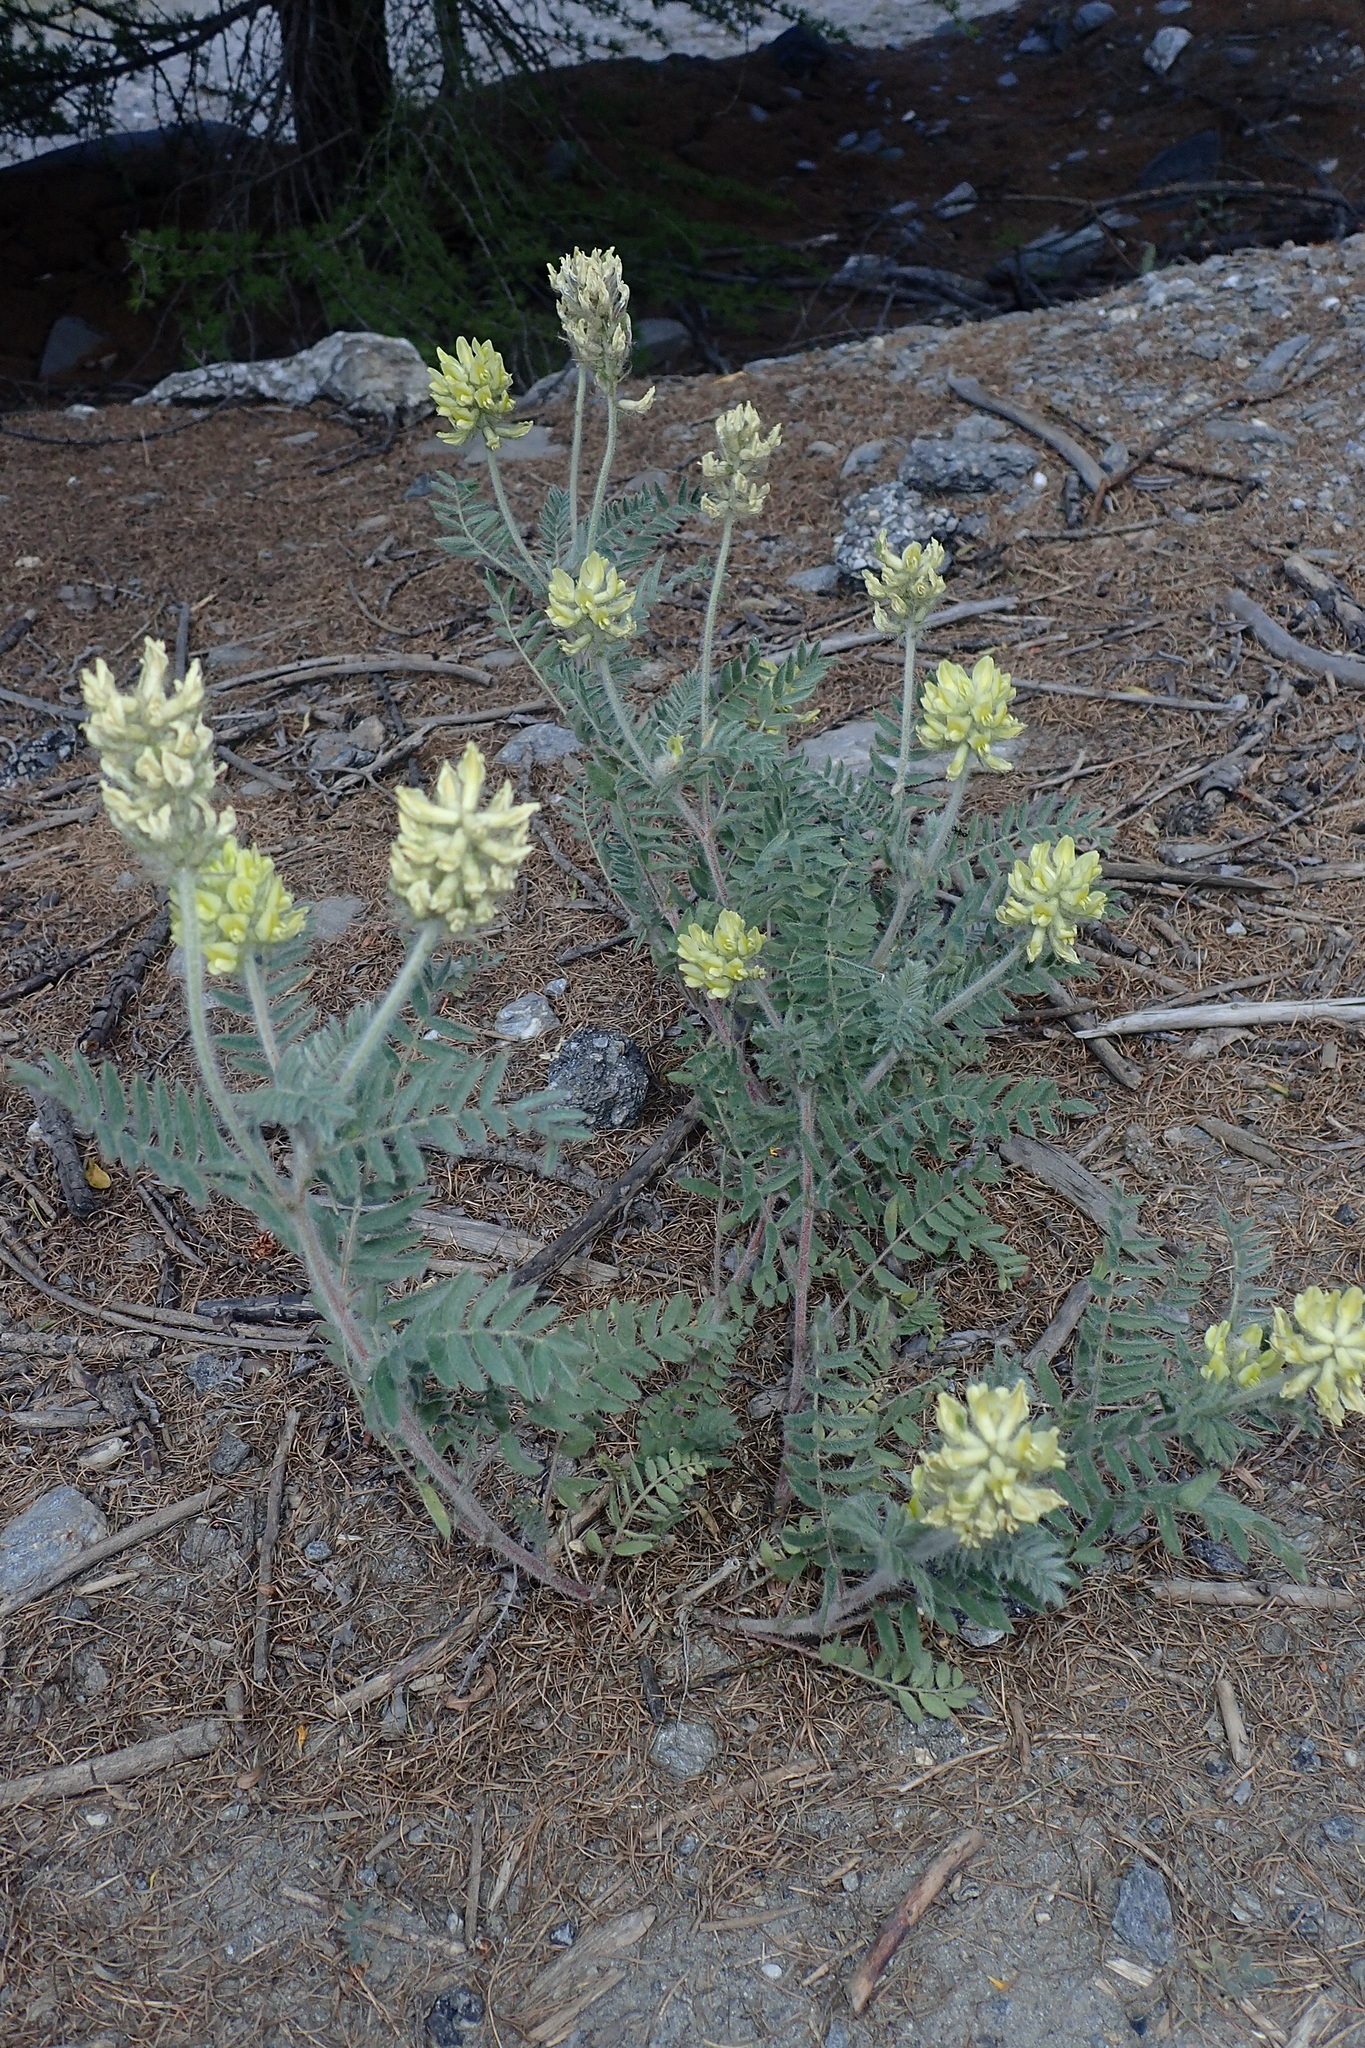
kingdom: Plantae
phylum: Tracheophyta
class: Magnoliopsida
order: Fabales
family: Fabaceae
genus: Oxytropis
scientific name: Oxytropis pilosa
